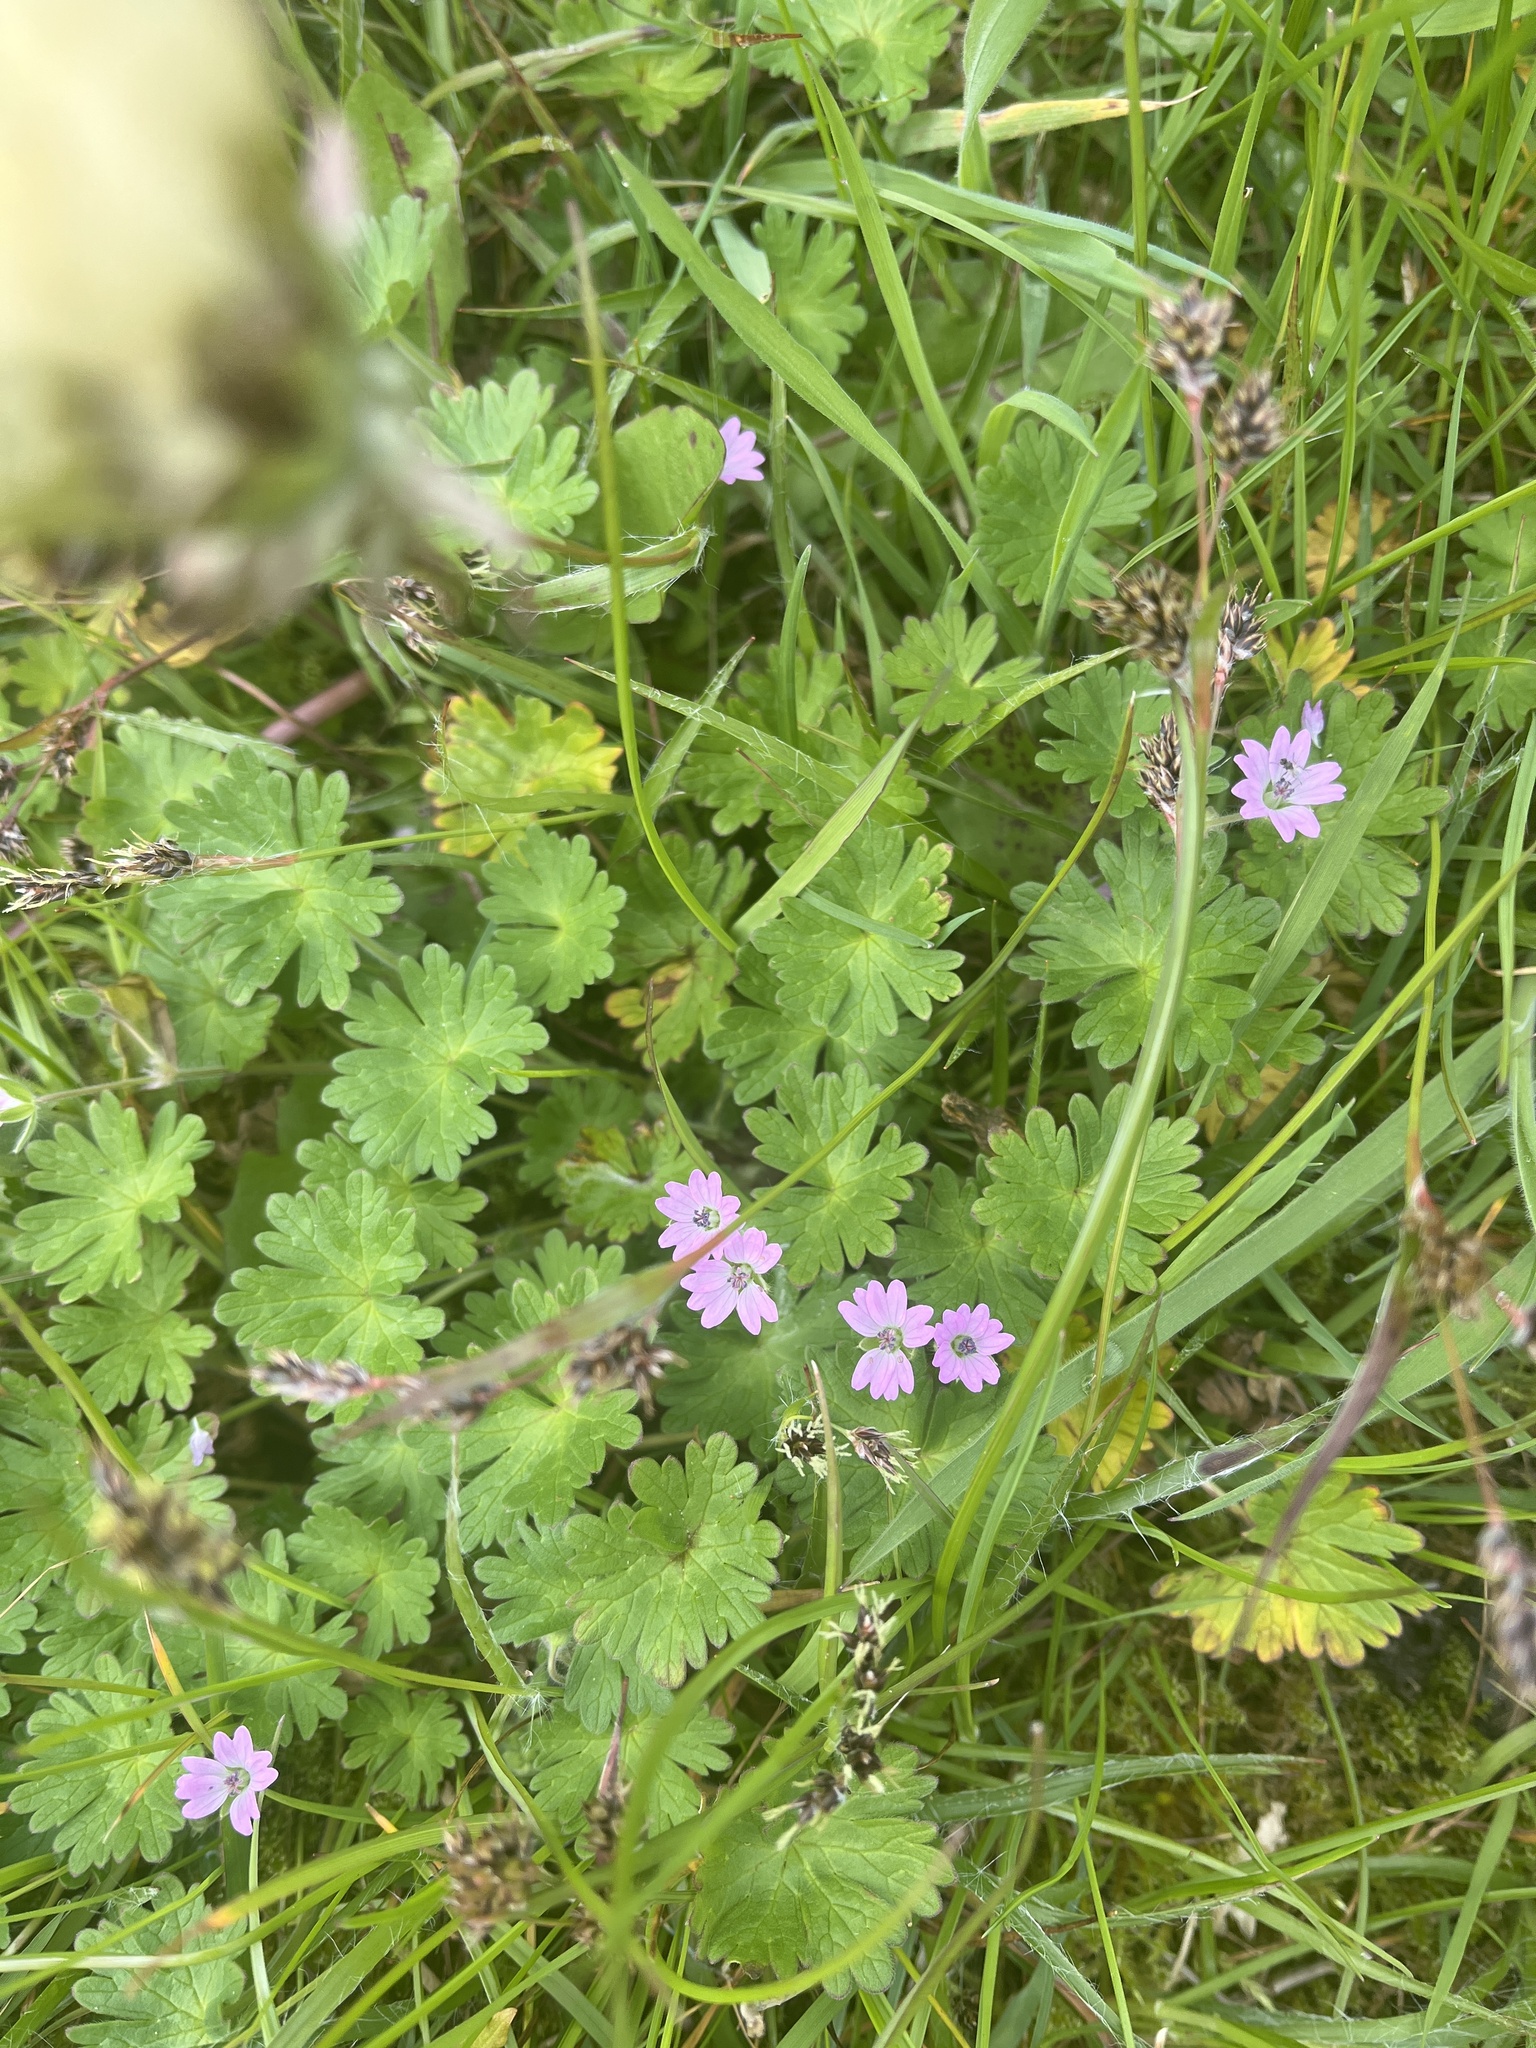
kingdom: Plantae
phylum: Tracheophyta
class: Magnoliopsida
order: Geraniales
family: Geraniaceae
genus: Geranium
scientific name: Geranium molle
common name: Dove's-foot crane's-bill
